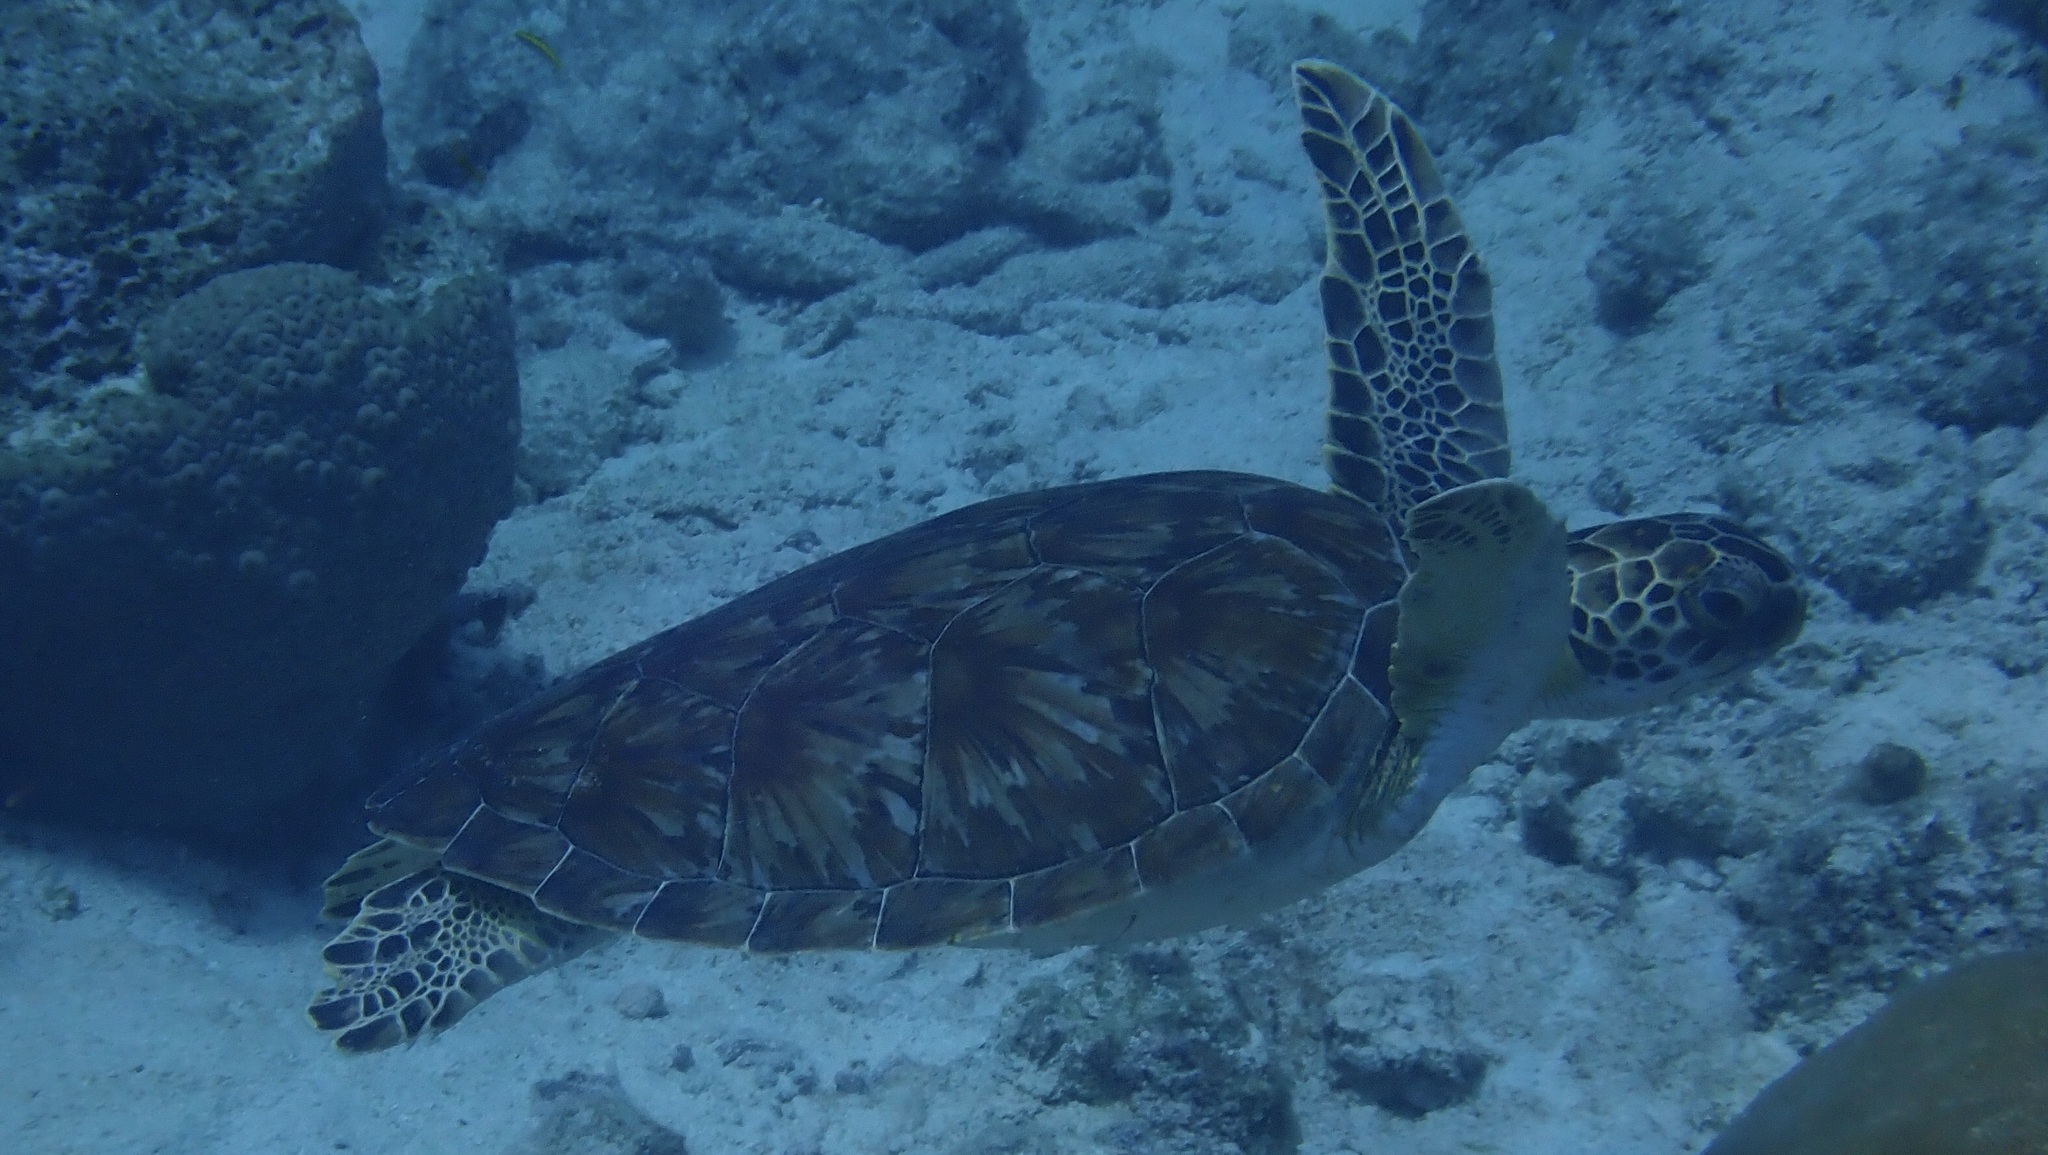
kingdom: Animalia
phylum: Chordata
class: Testudines
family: Cheloniidae
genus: Chelonia
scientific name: Chelonia mydas
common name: Green turtle
